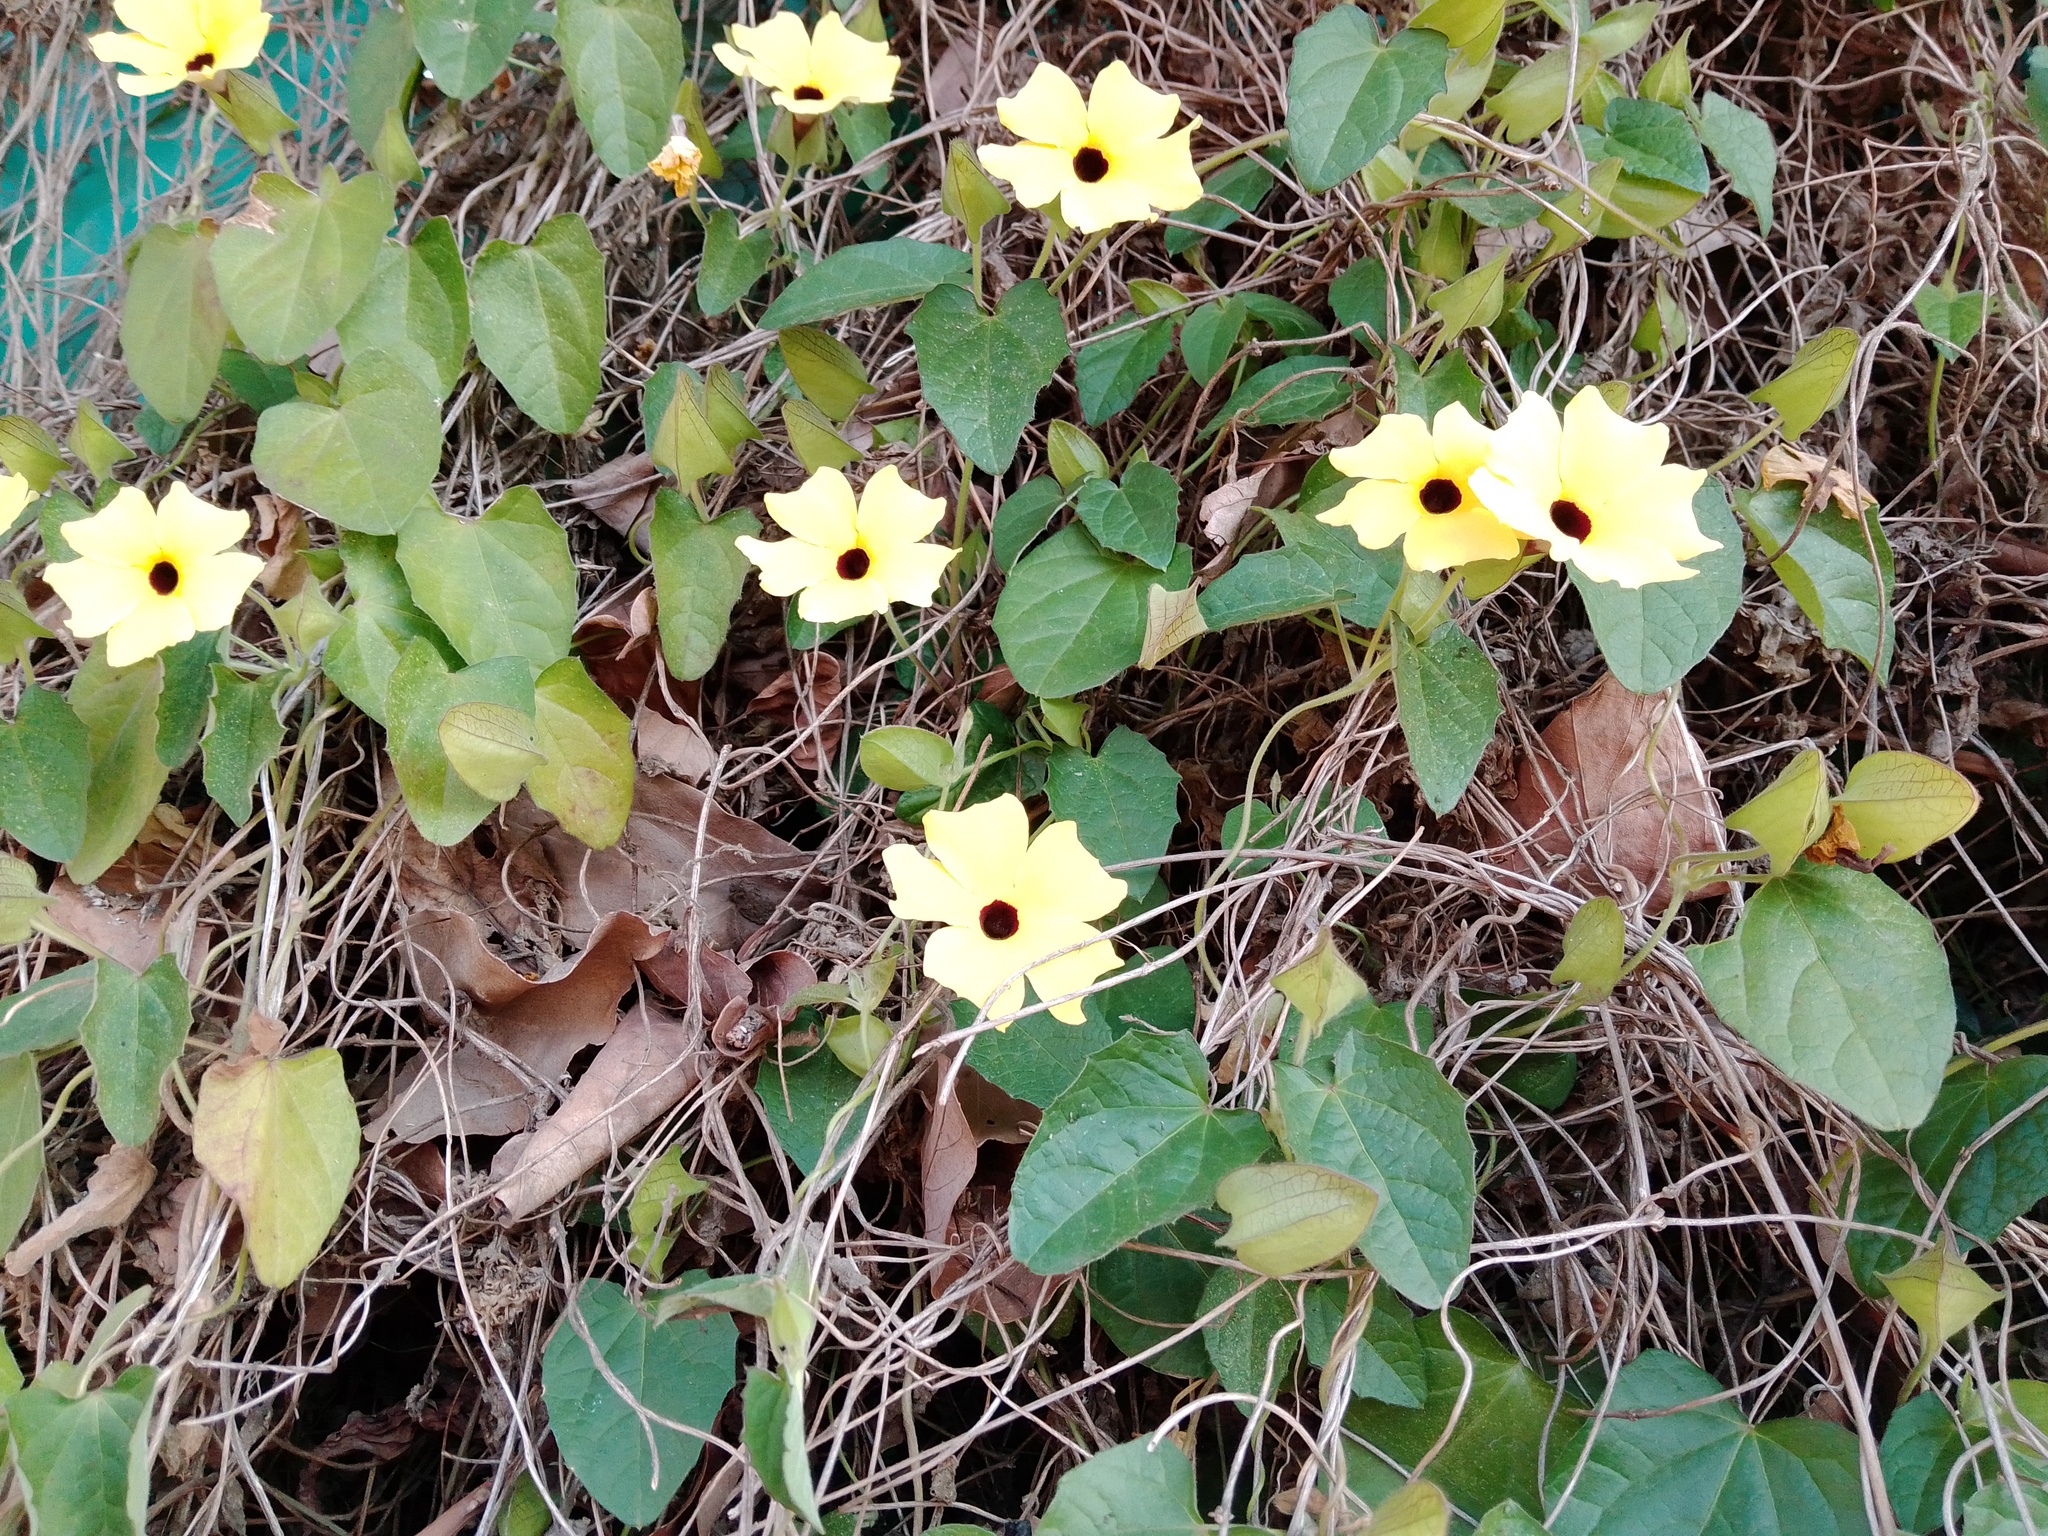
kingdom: Plantae
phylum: Tracheophyta
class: Magnoliopsida
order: Lamiales
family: Acanthaceae
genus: Thunbergia
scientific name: Thunbergia alata
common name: Blackeyed susan vine
